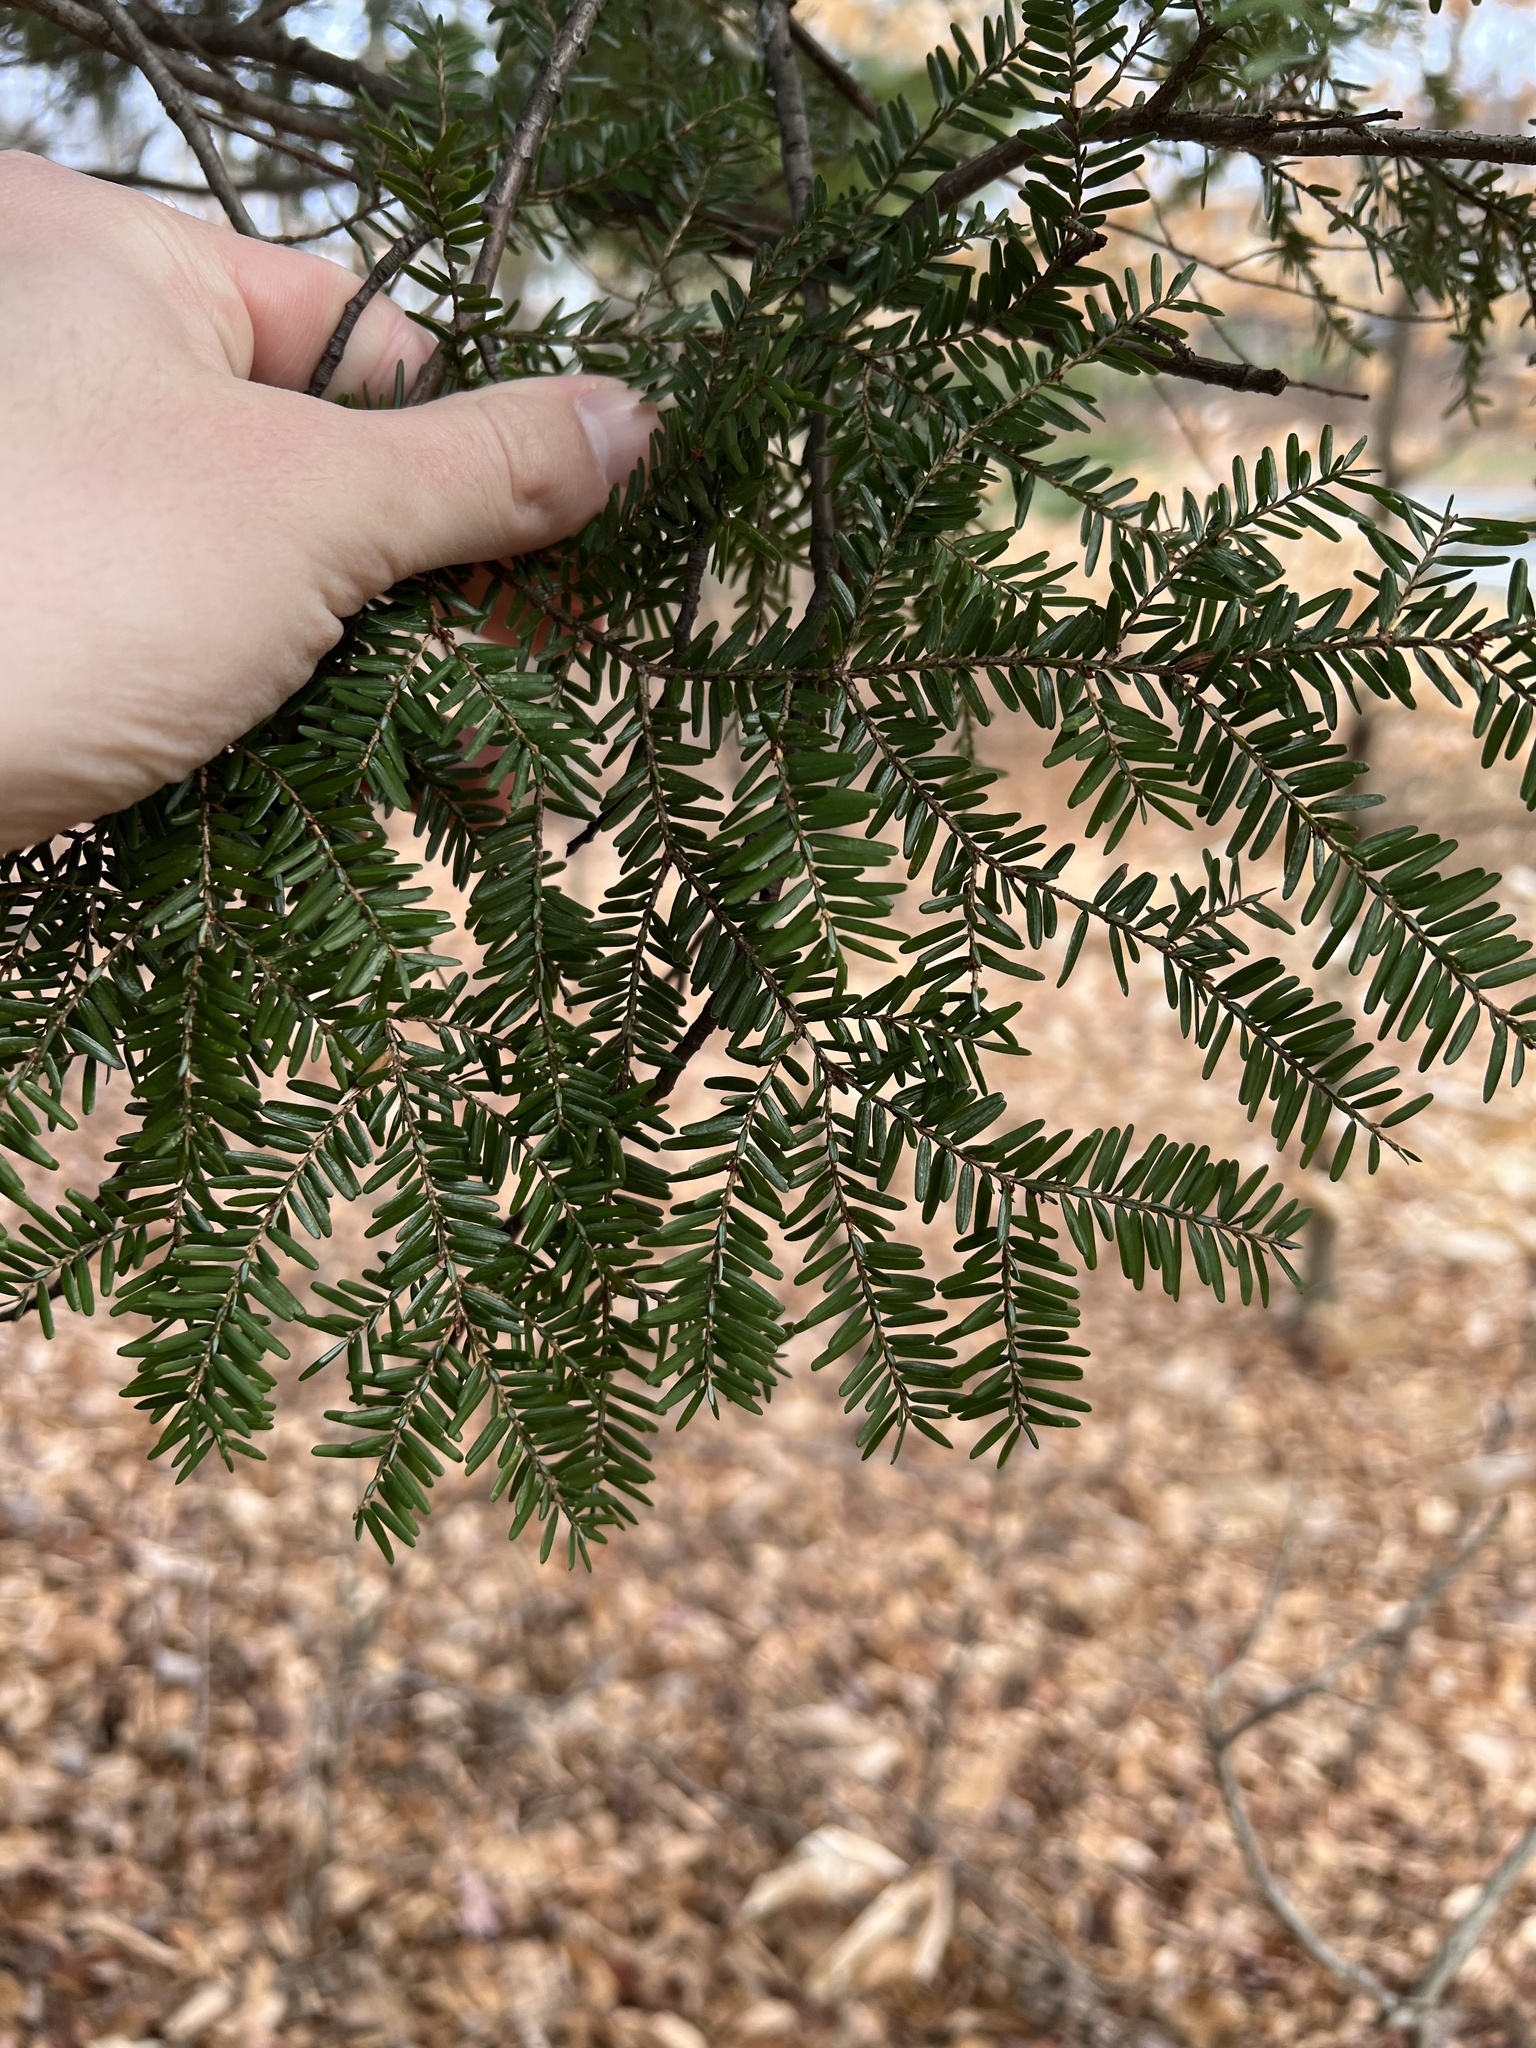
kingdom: Plantae
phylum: Tracheophyta
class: Pinopsida
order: Pinales
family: Pinaceae
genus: Tsuga
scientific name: Tsuga canadensis
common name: Eastern hemlock
